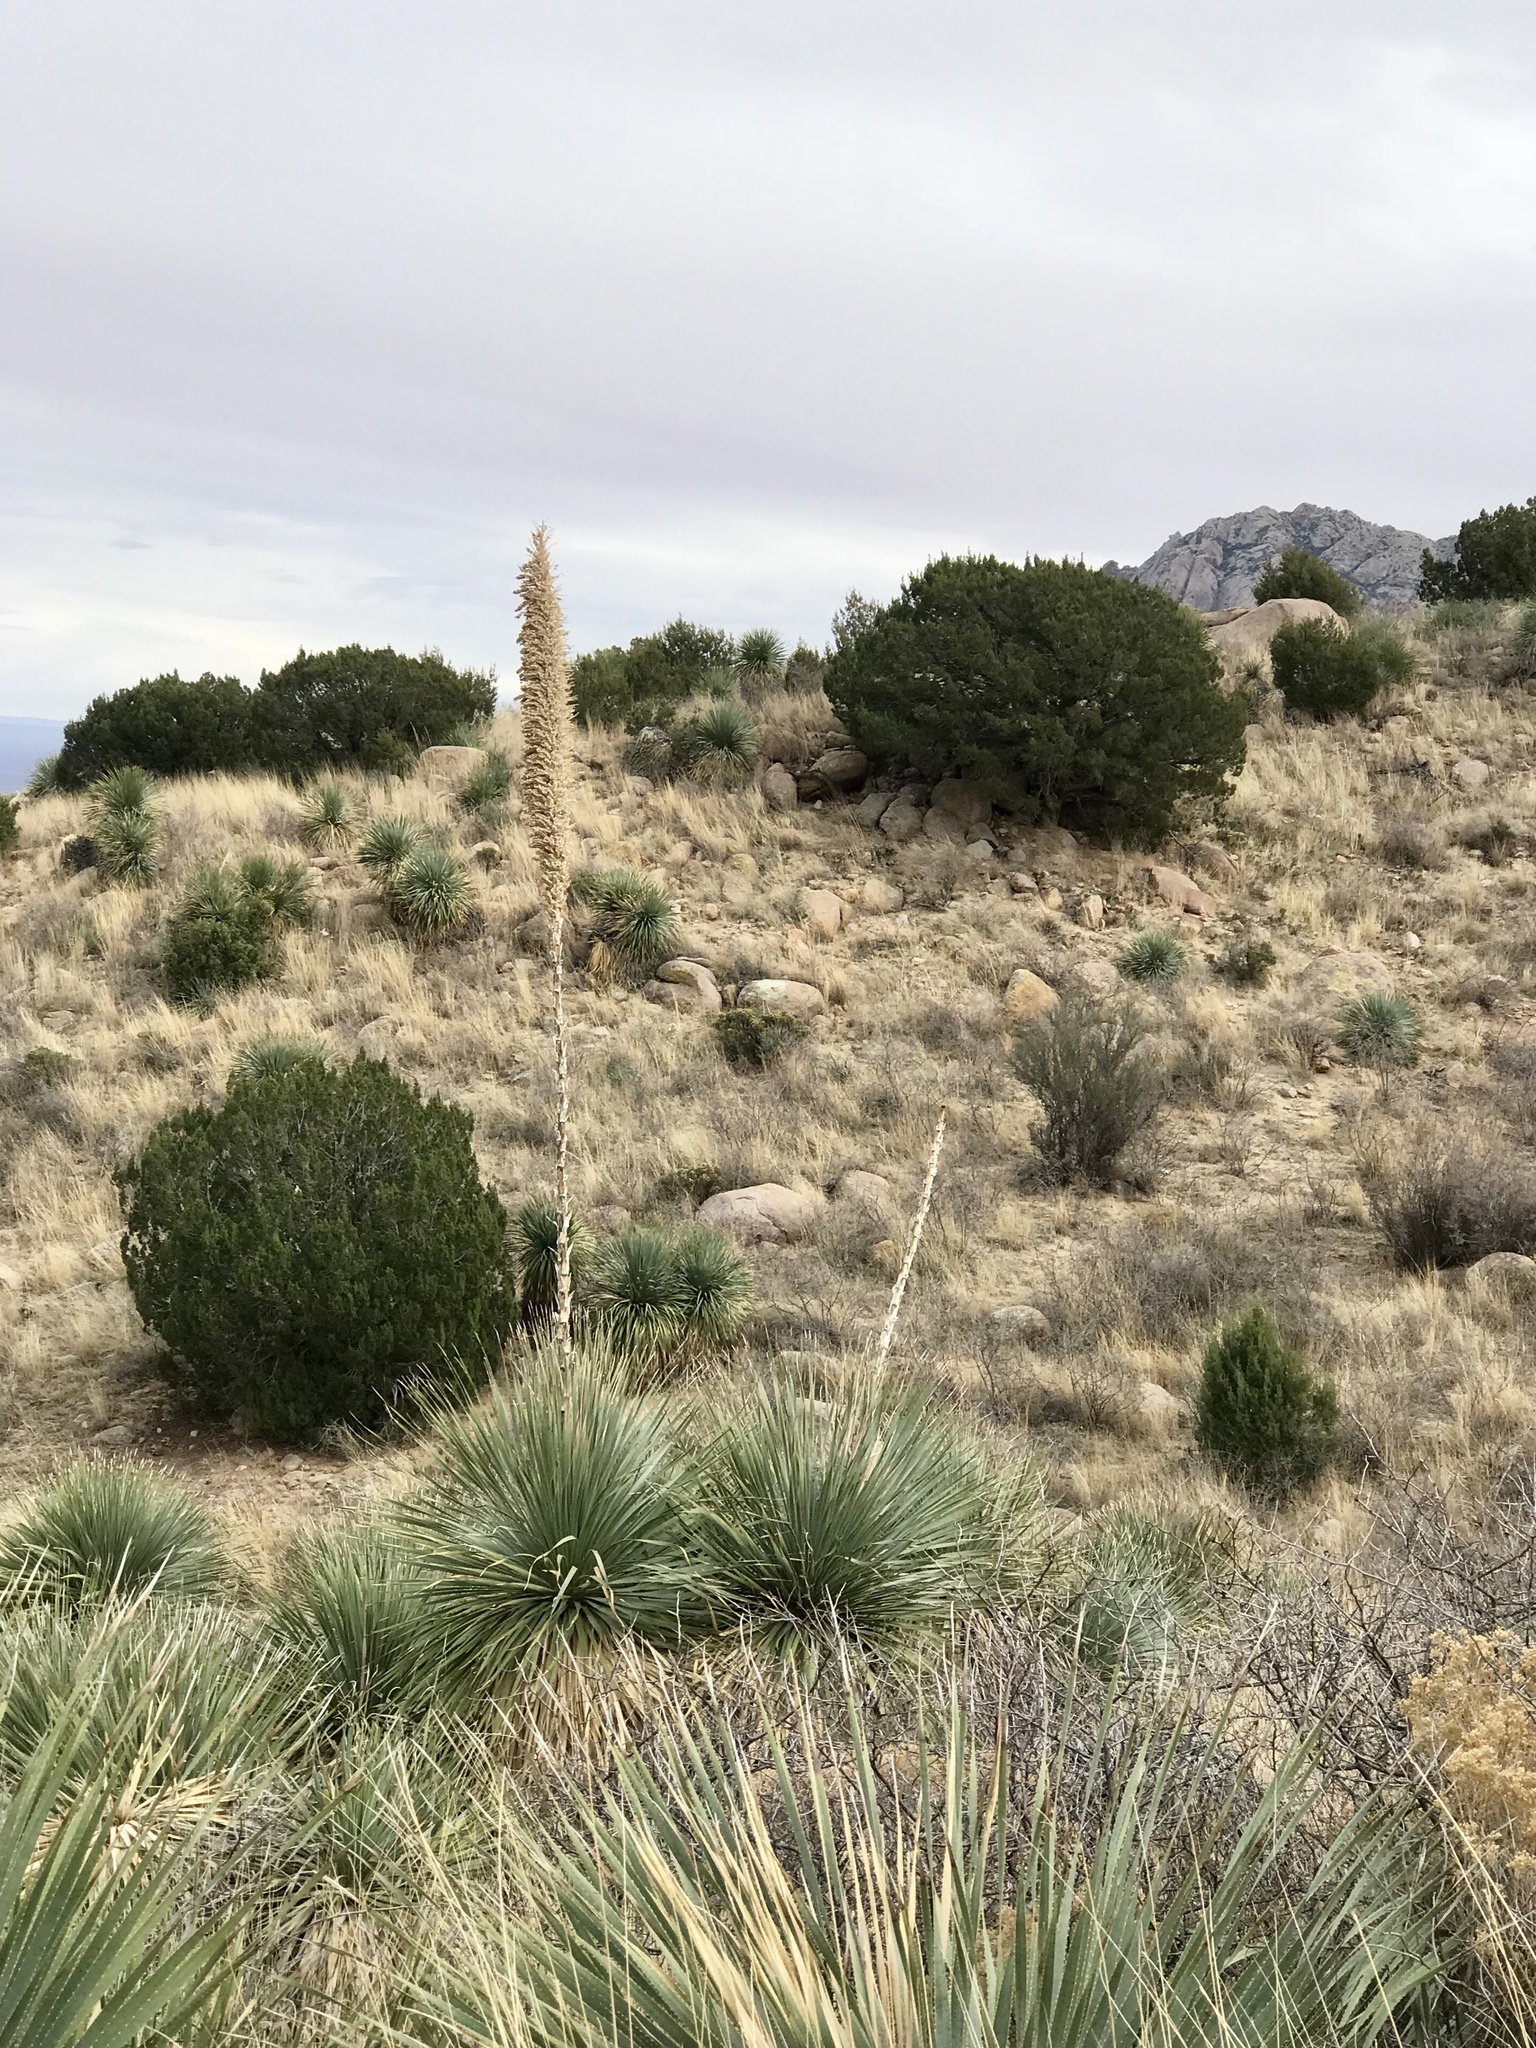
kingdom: Plantae
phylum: Tracheophyta
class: Liliopsida
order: Asparagales
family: Asparagaceae
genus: Dasylirion
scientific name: Dasylirion wheeleri
